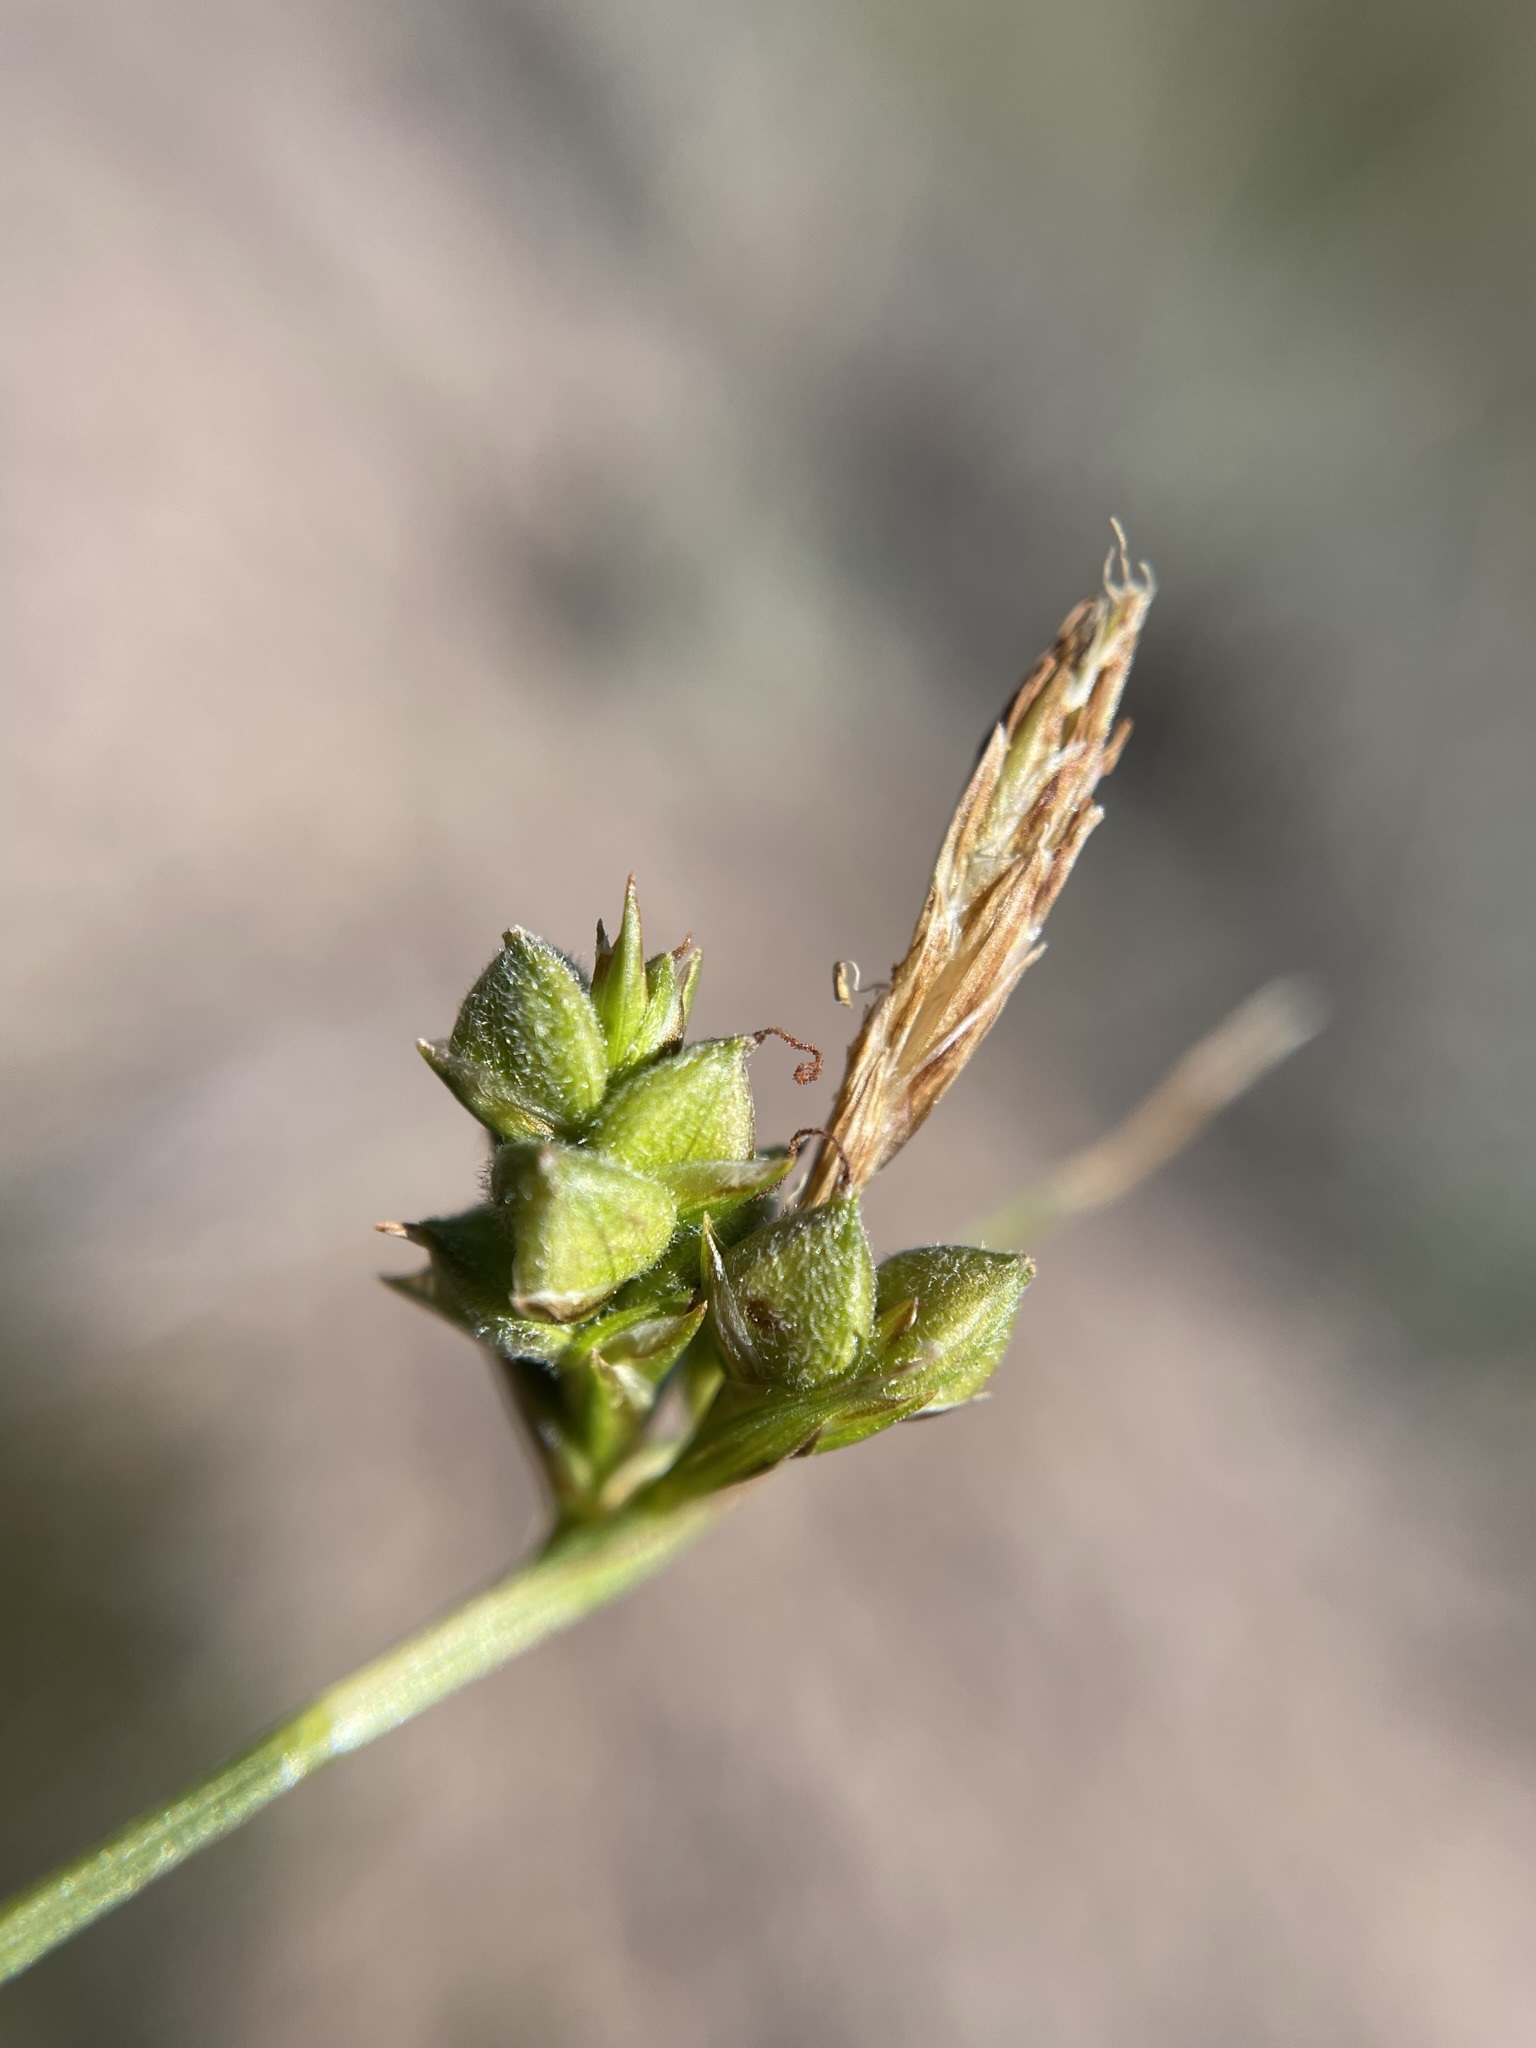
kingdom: Plantae
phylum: Tracheophyta
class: Liliopsida
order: Poales
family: Cyperaceae
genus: Carex
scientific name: Carex triquetra
